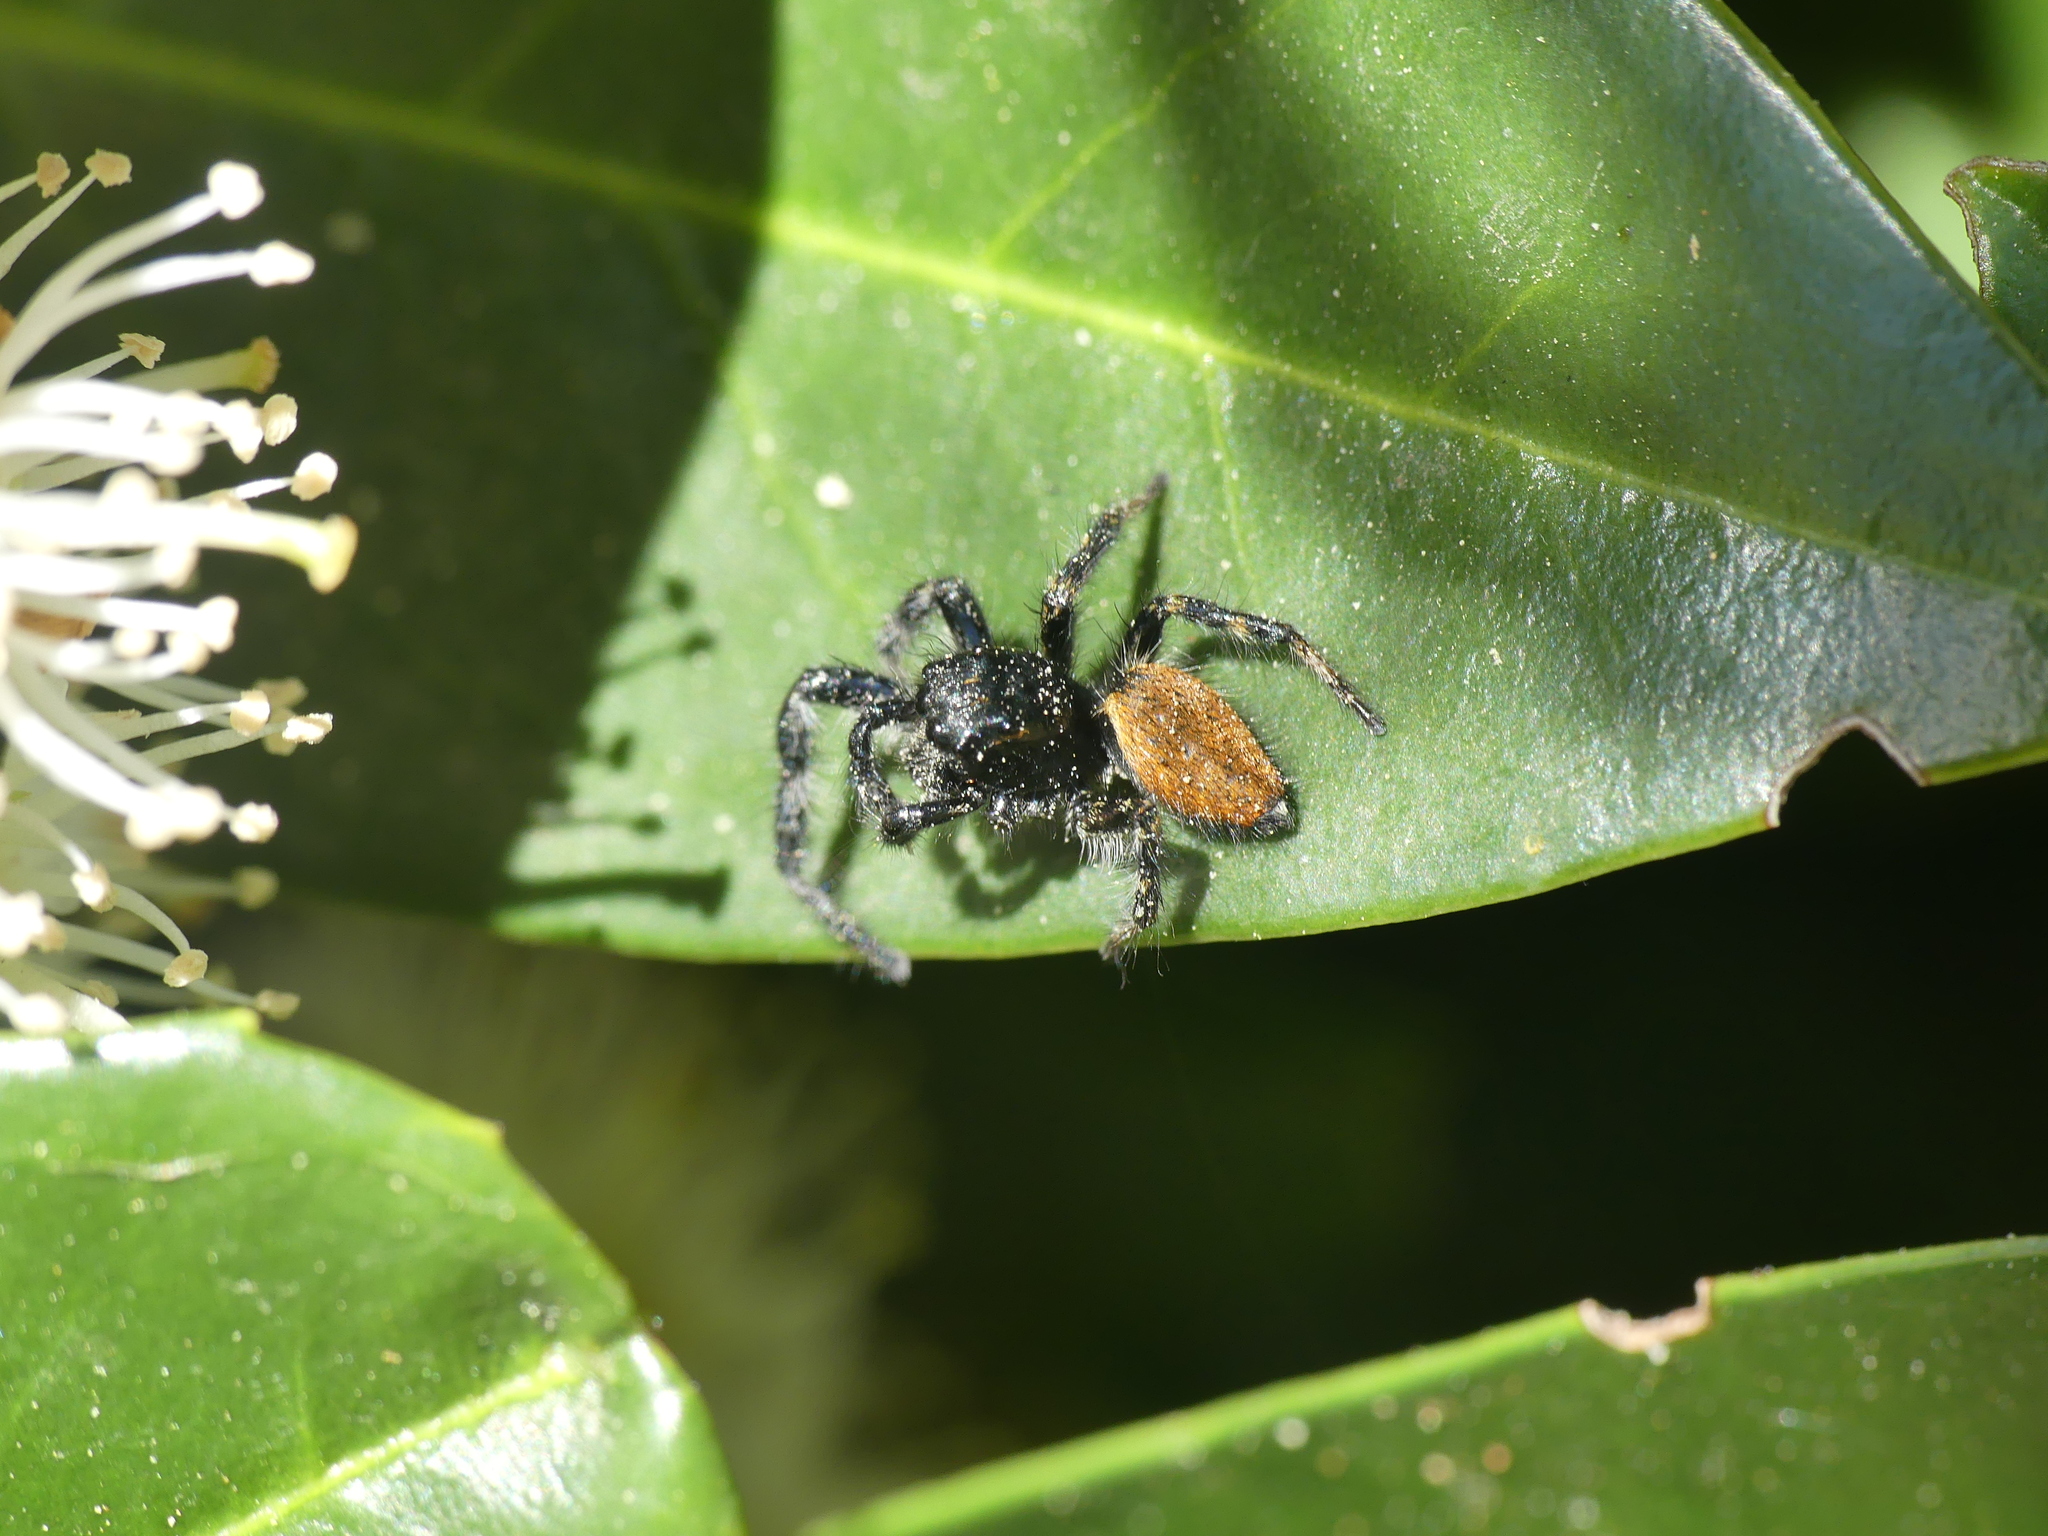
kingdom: Animalia
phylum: Arthropoda
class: Arachnida
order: Araneae
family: Salticidae
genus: Carrhotus
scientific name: Carrhotus xanthogramma
